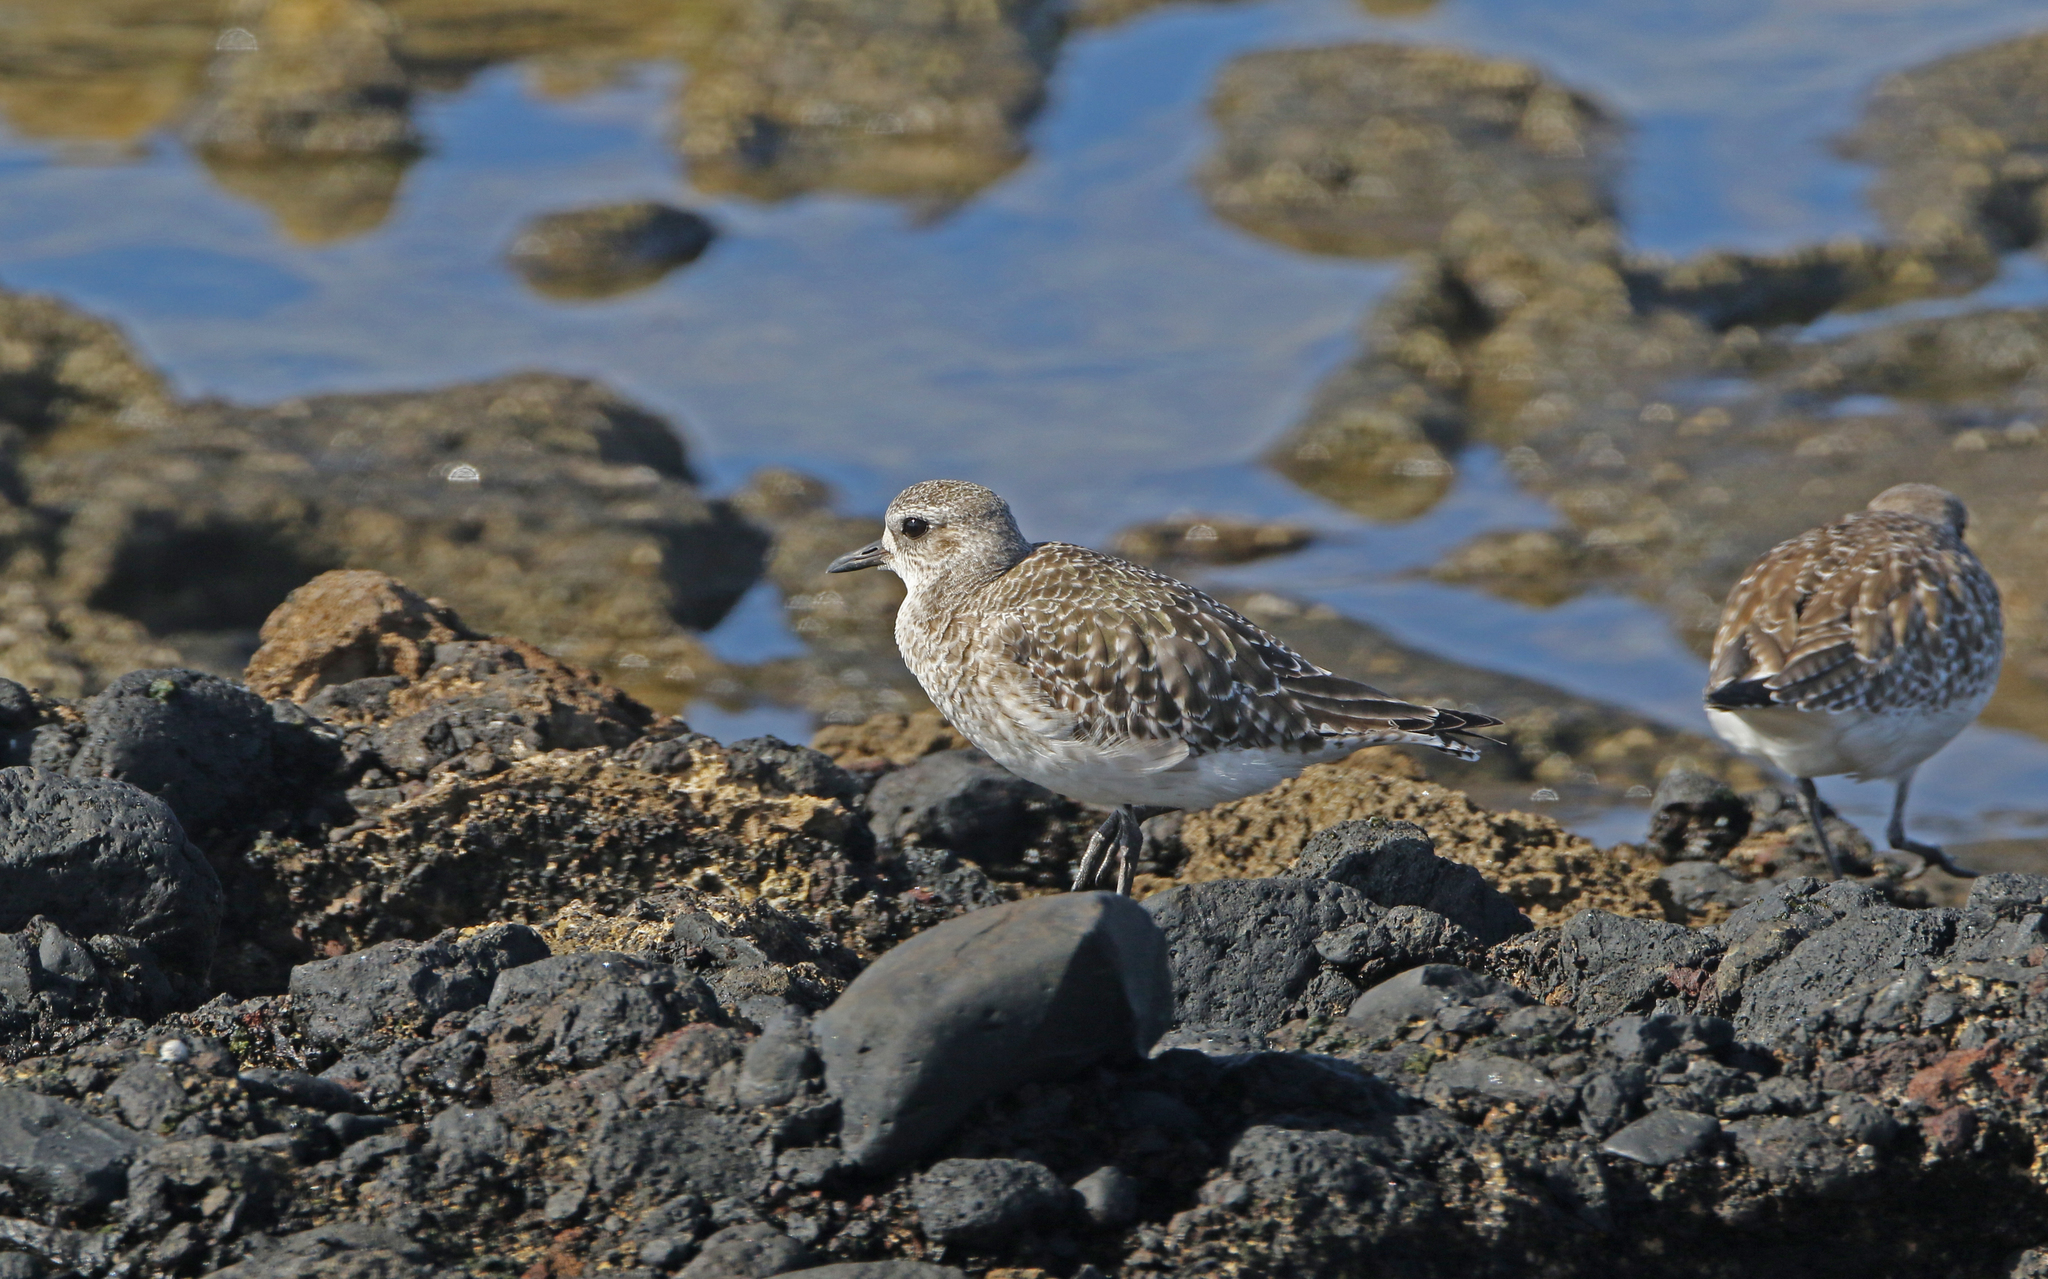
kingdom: Animalia
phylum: Chordata
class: Aves
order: Charadriiformes
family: Charadriidae
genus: Pluvialis
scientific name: Pluvialis squatarola
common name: Grey plover
